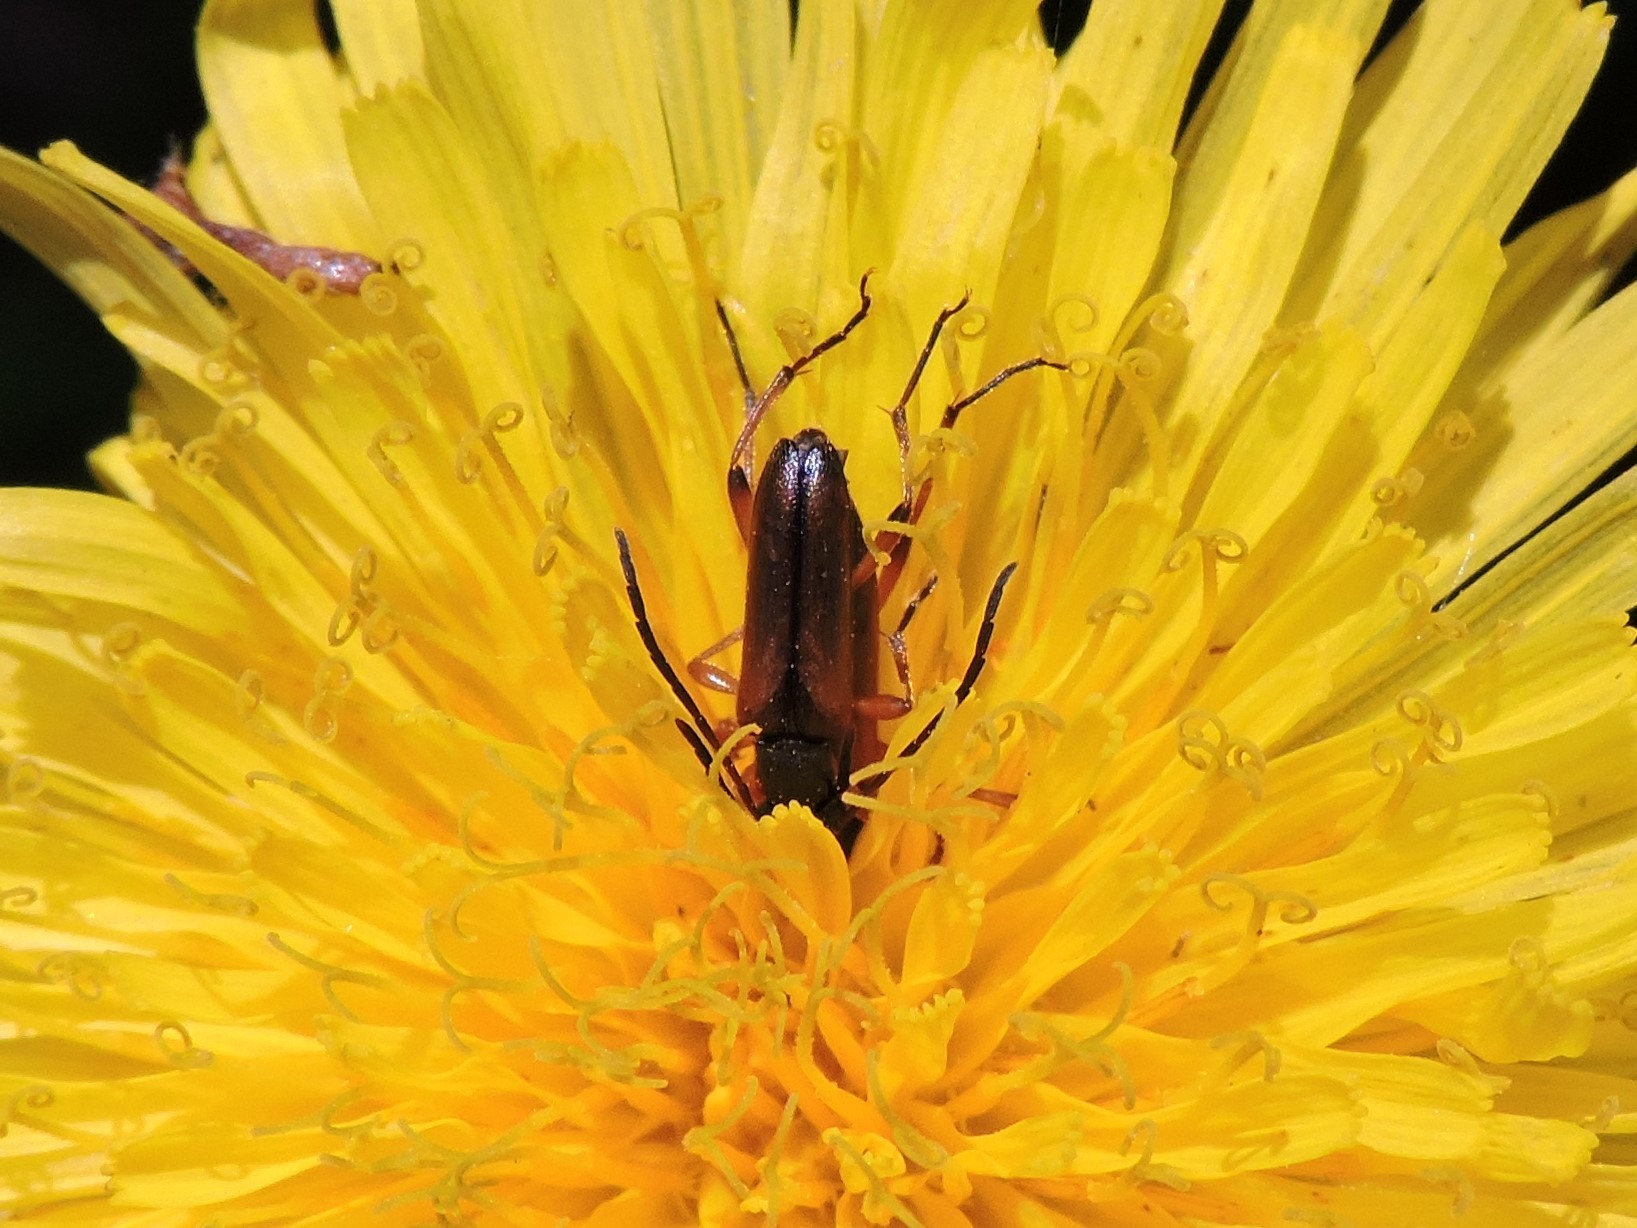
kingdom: Animalia
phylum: Arthropoda
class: Insecta
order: Coleoptera
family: Cerambycidae
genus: Alosterna
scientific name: Alosterna tabacicolor
